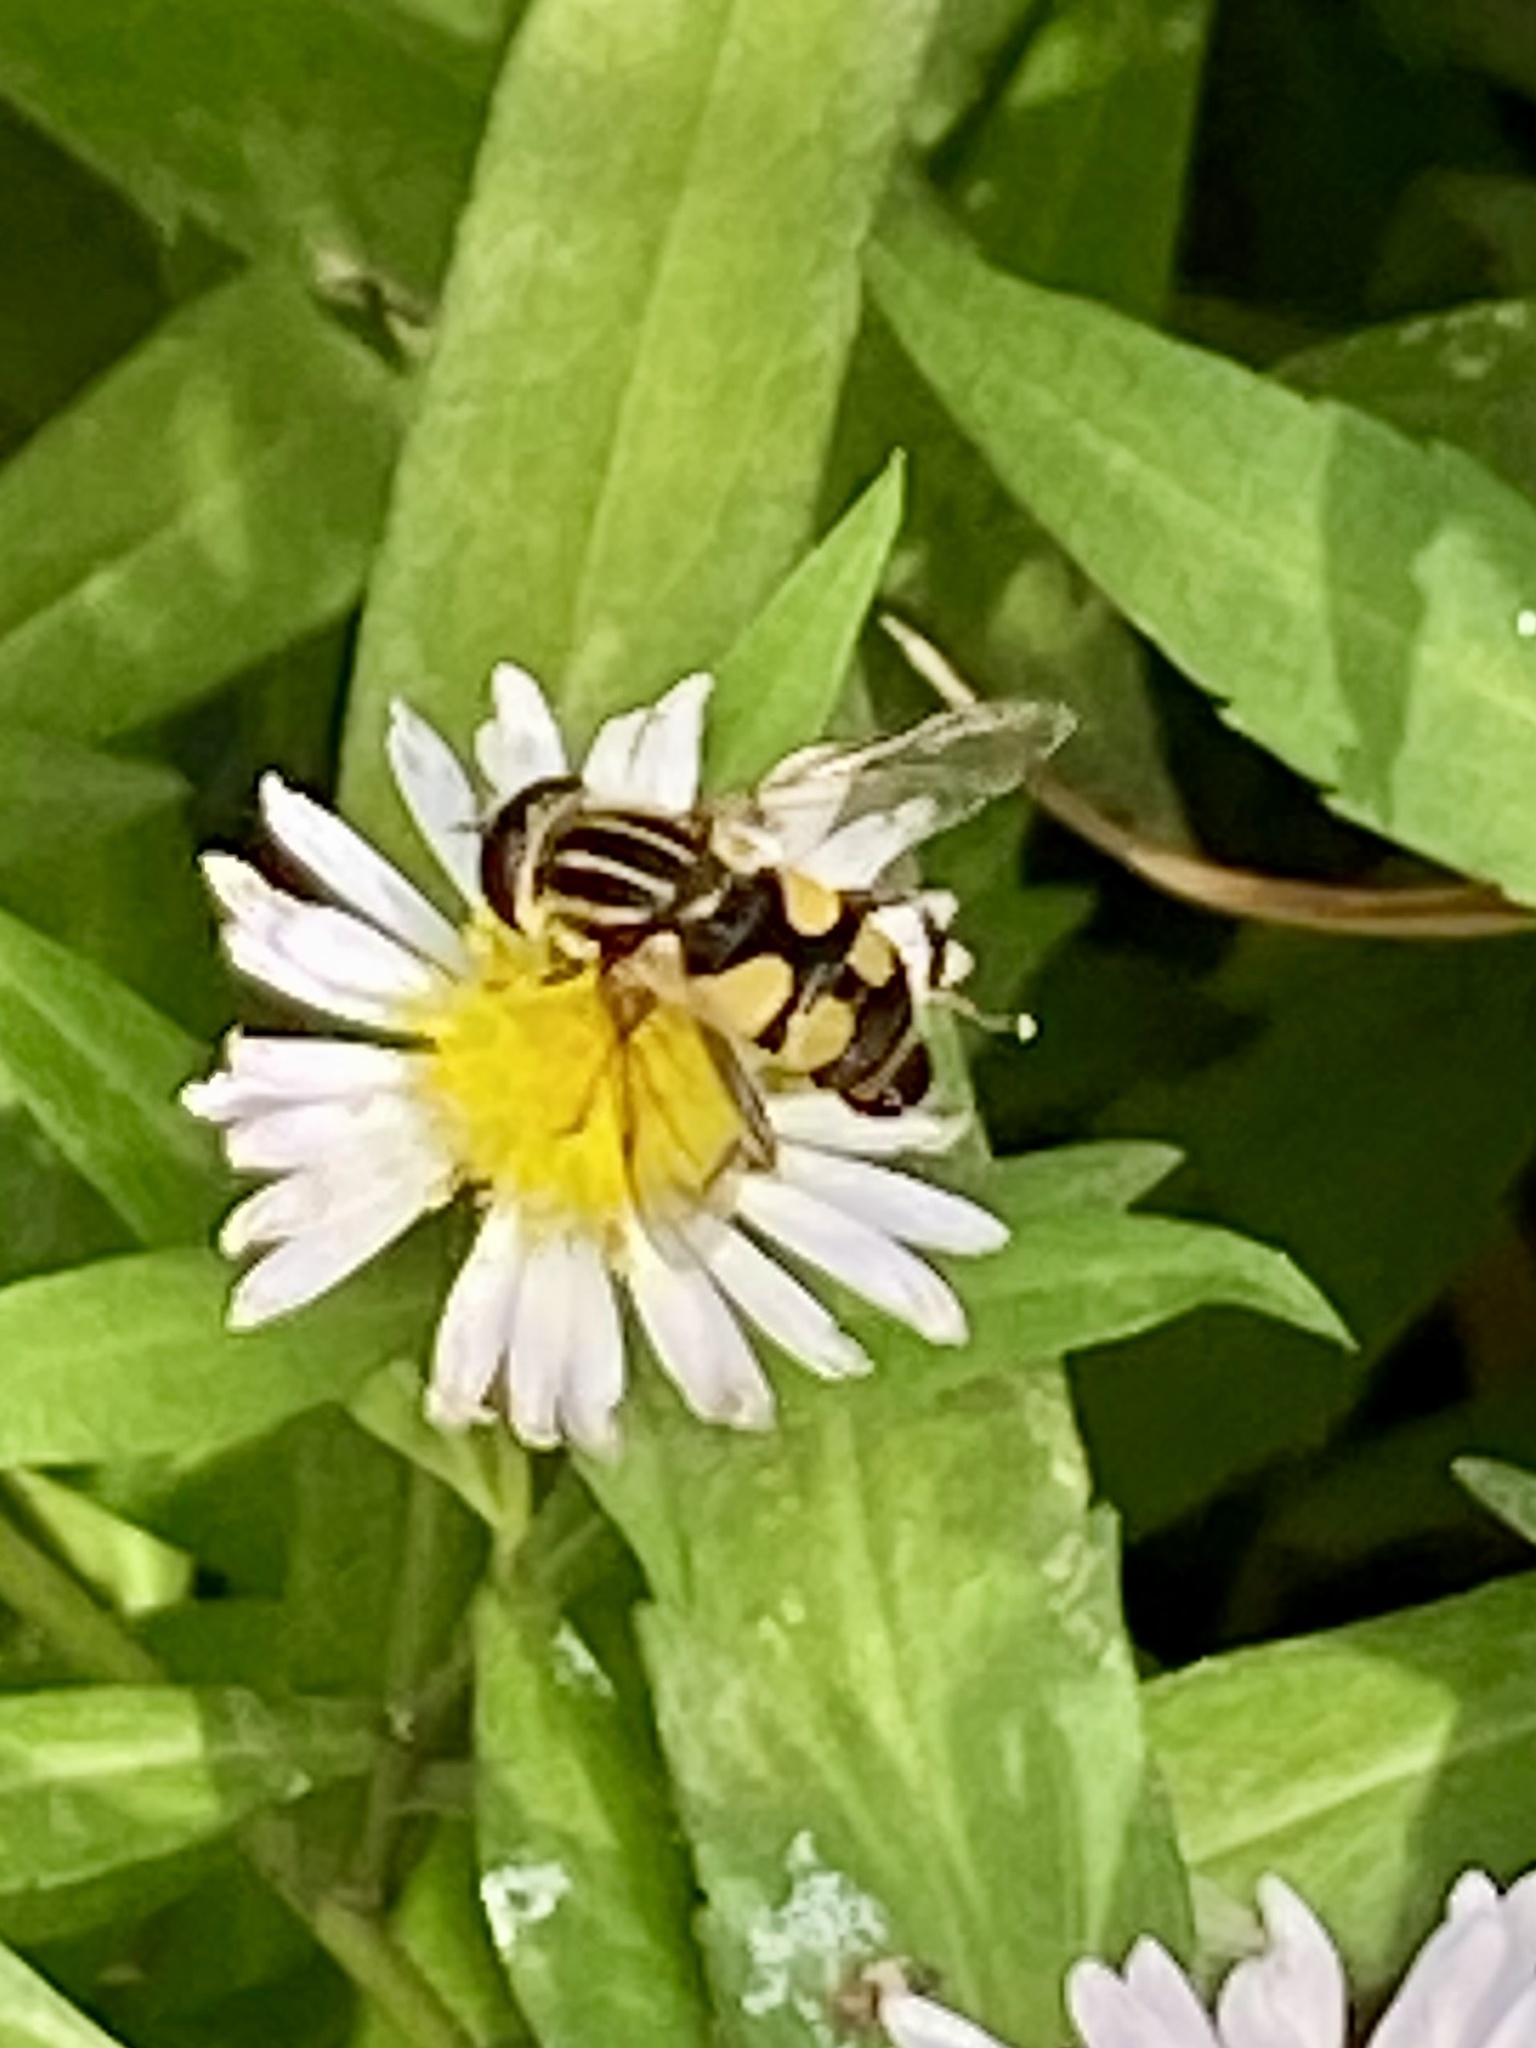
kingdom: Animalia
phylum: Arthropoda
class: Insecta
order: Diptera
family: Syrphidae
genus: Helophilus
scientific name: Helophilus fasciatus
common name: Narrow-headed marsh fly
